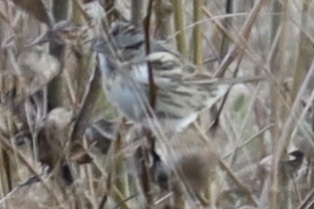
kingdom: Animalia
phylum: Chordata
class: Aves
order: Passeriformes
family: Passerellidae
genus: Melospiza
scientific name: Melospiza lincolnii
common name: Lincoln's sparrow
